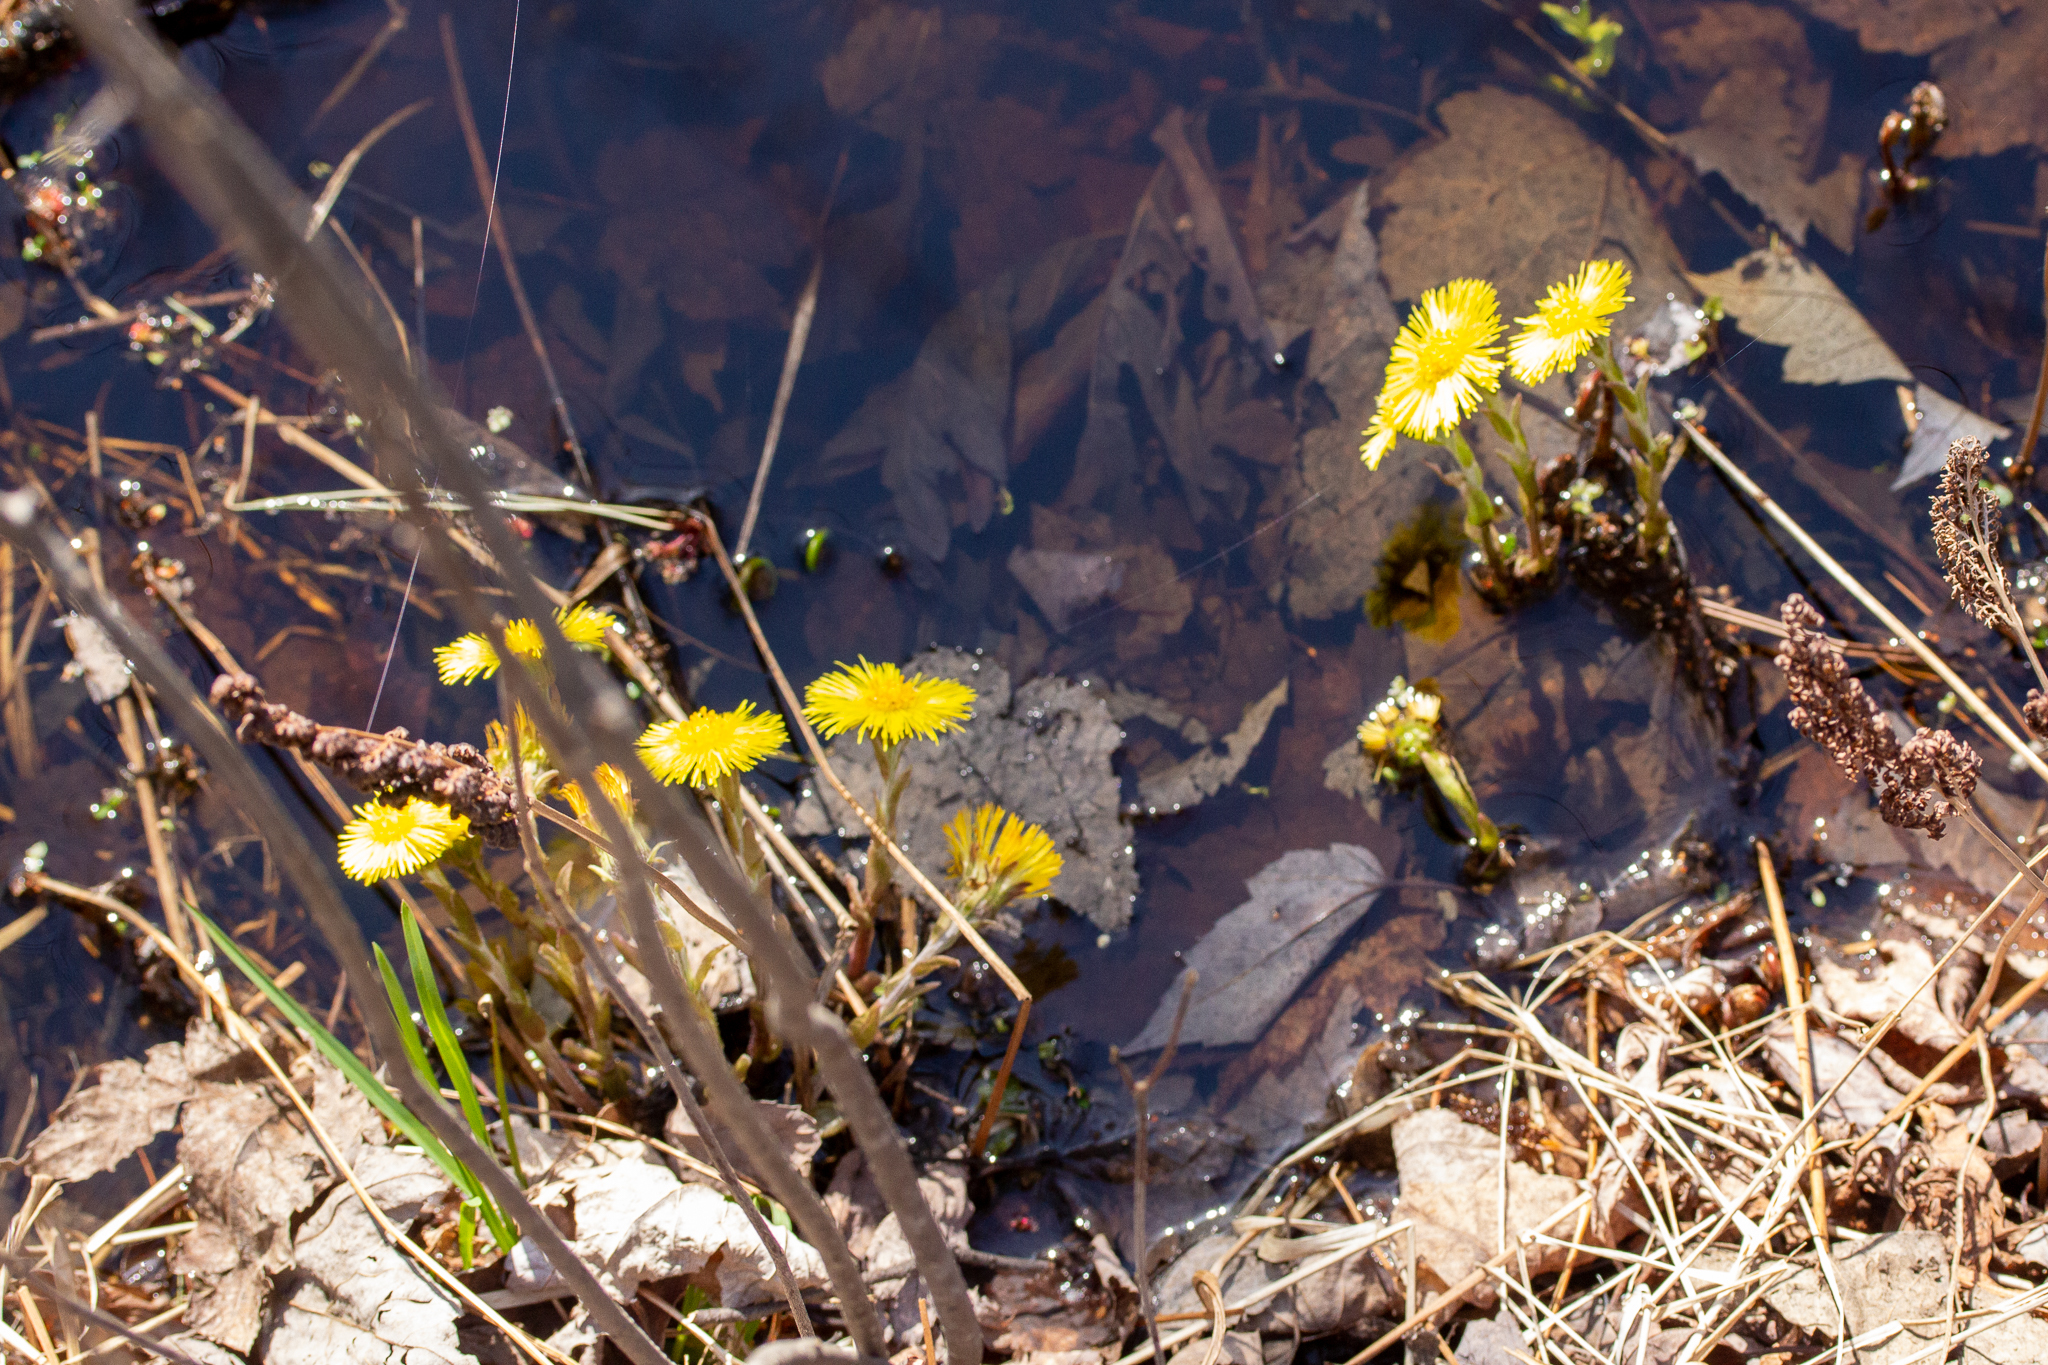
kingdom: Plantae
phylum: Tracheophyta
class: Magnoliopsida
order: Asterales
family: Asteraceae
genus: Tussilago
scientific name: Tussilago farfara
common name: Coltsfoot
